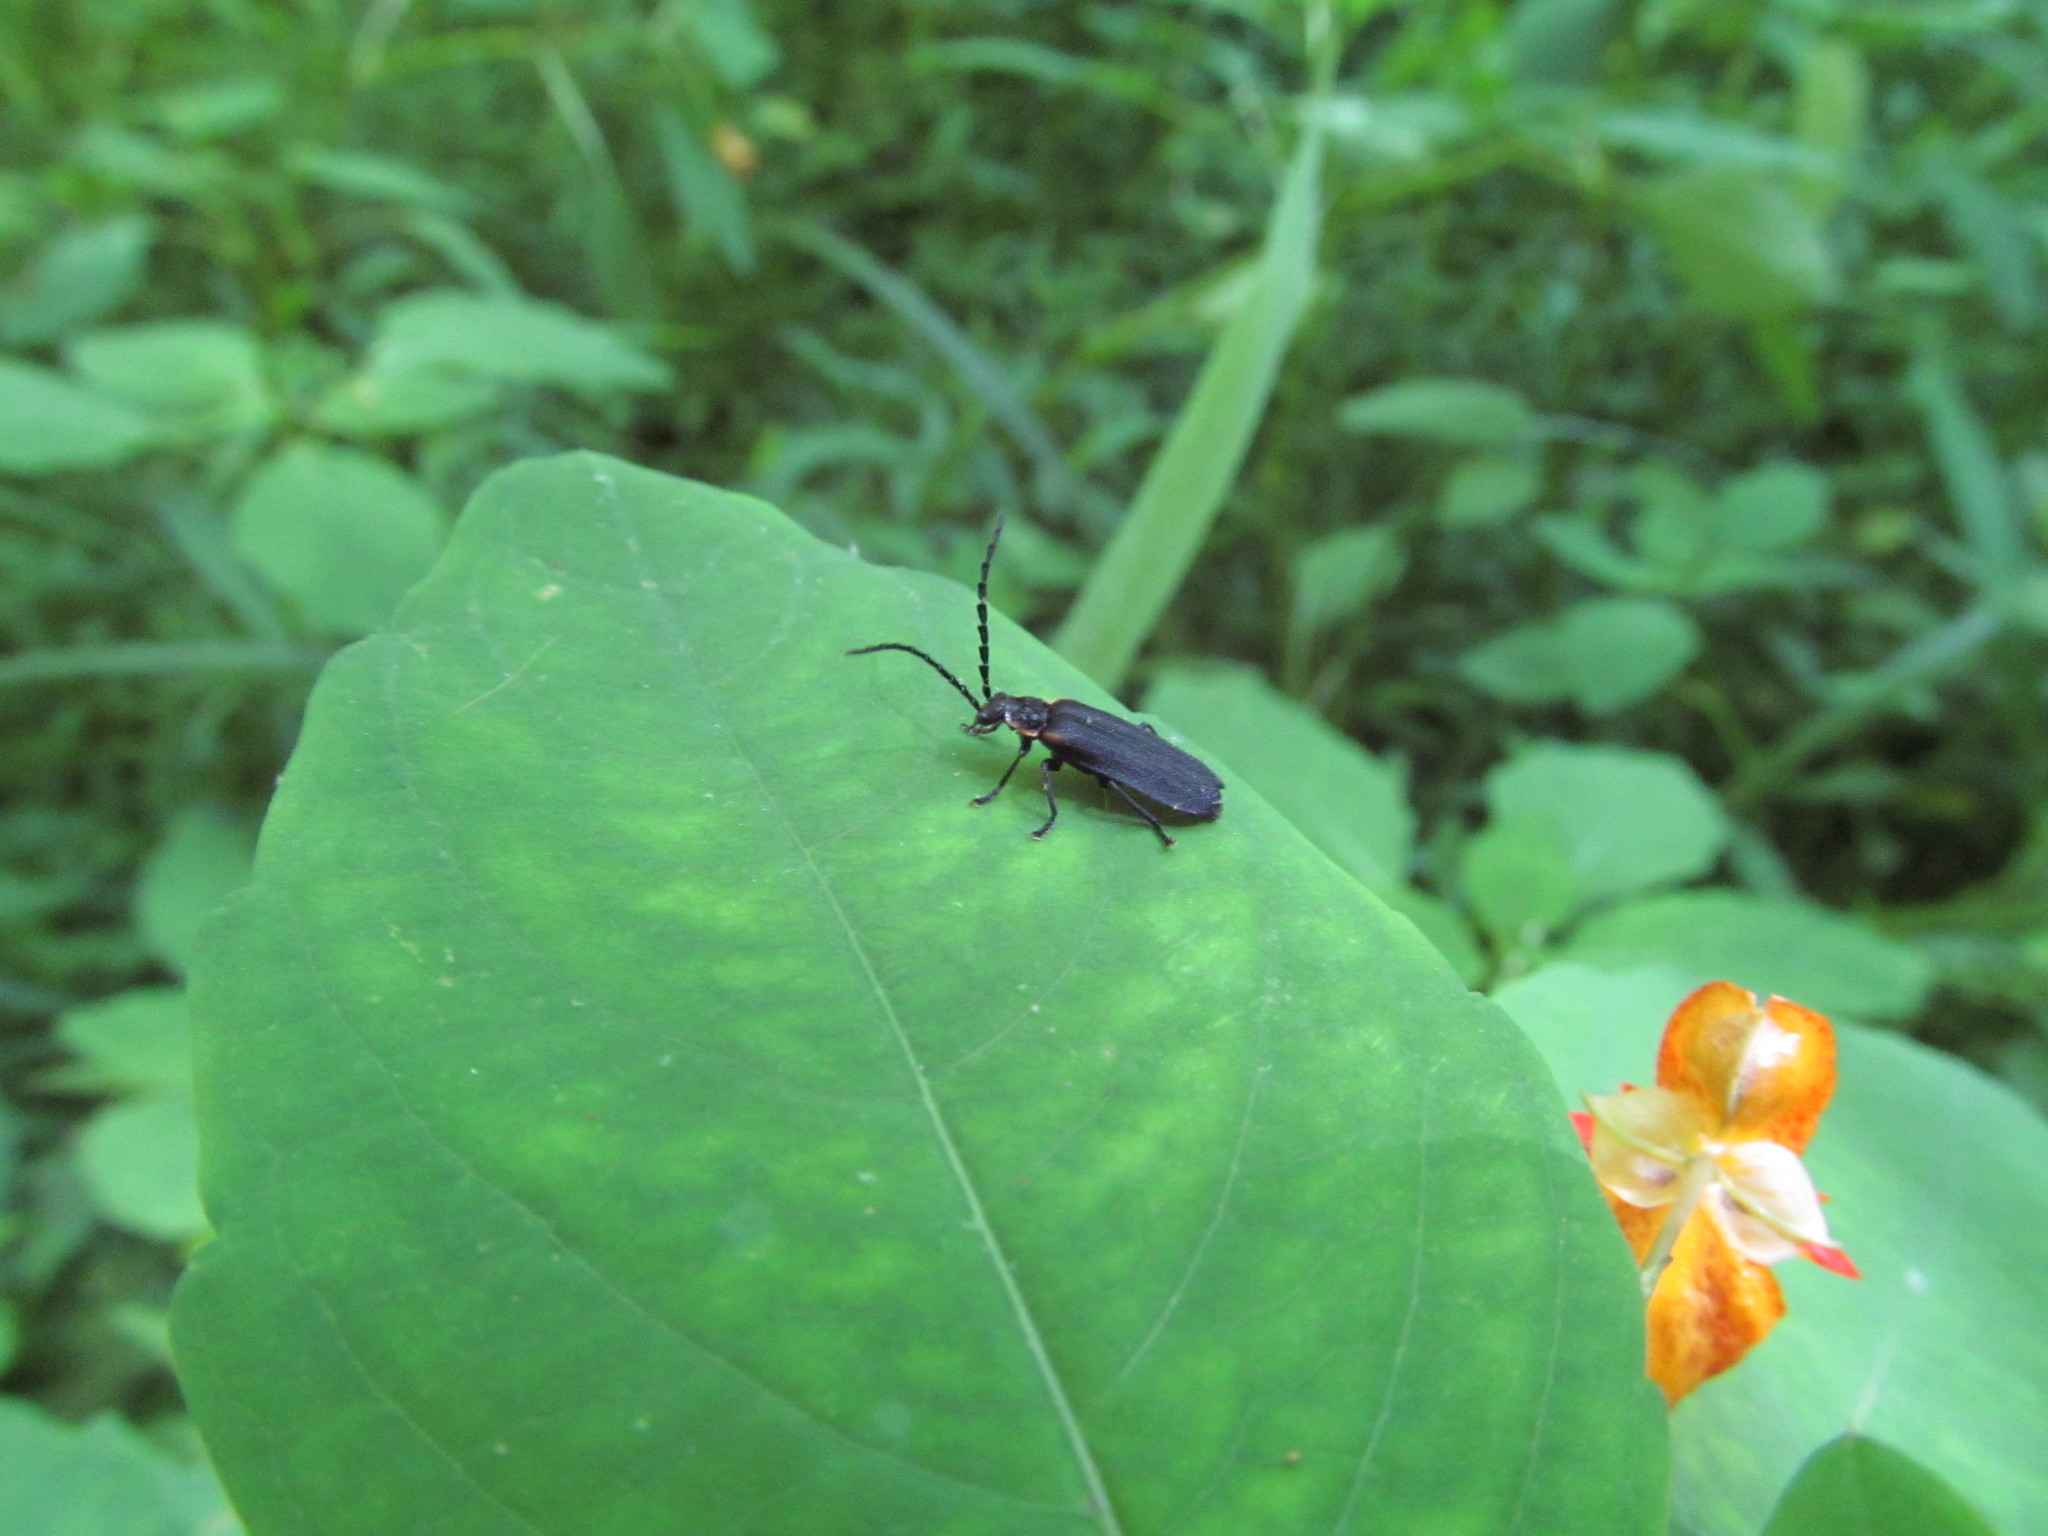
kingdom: Animalia
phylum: Arthropoda
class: Insecta
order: Coleoptera
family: Cantharidae
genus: Polemius
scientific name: Polemius laticornis
